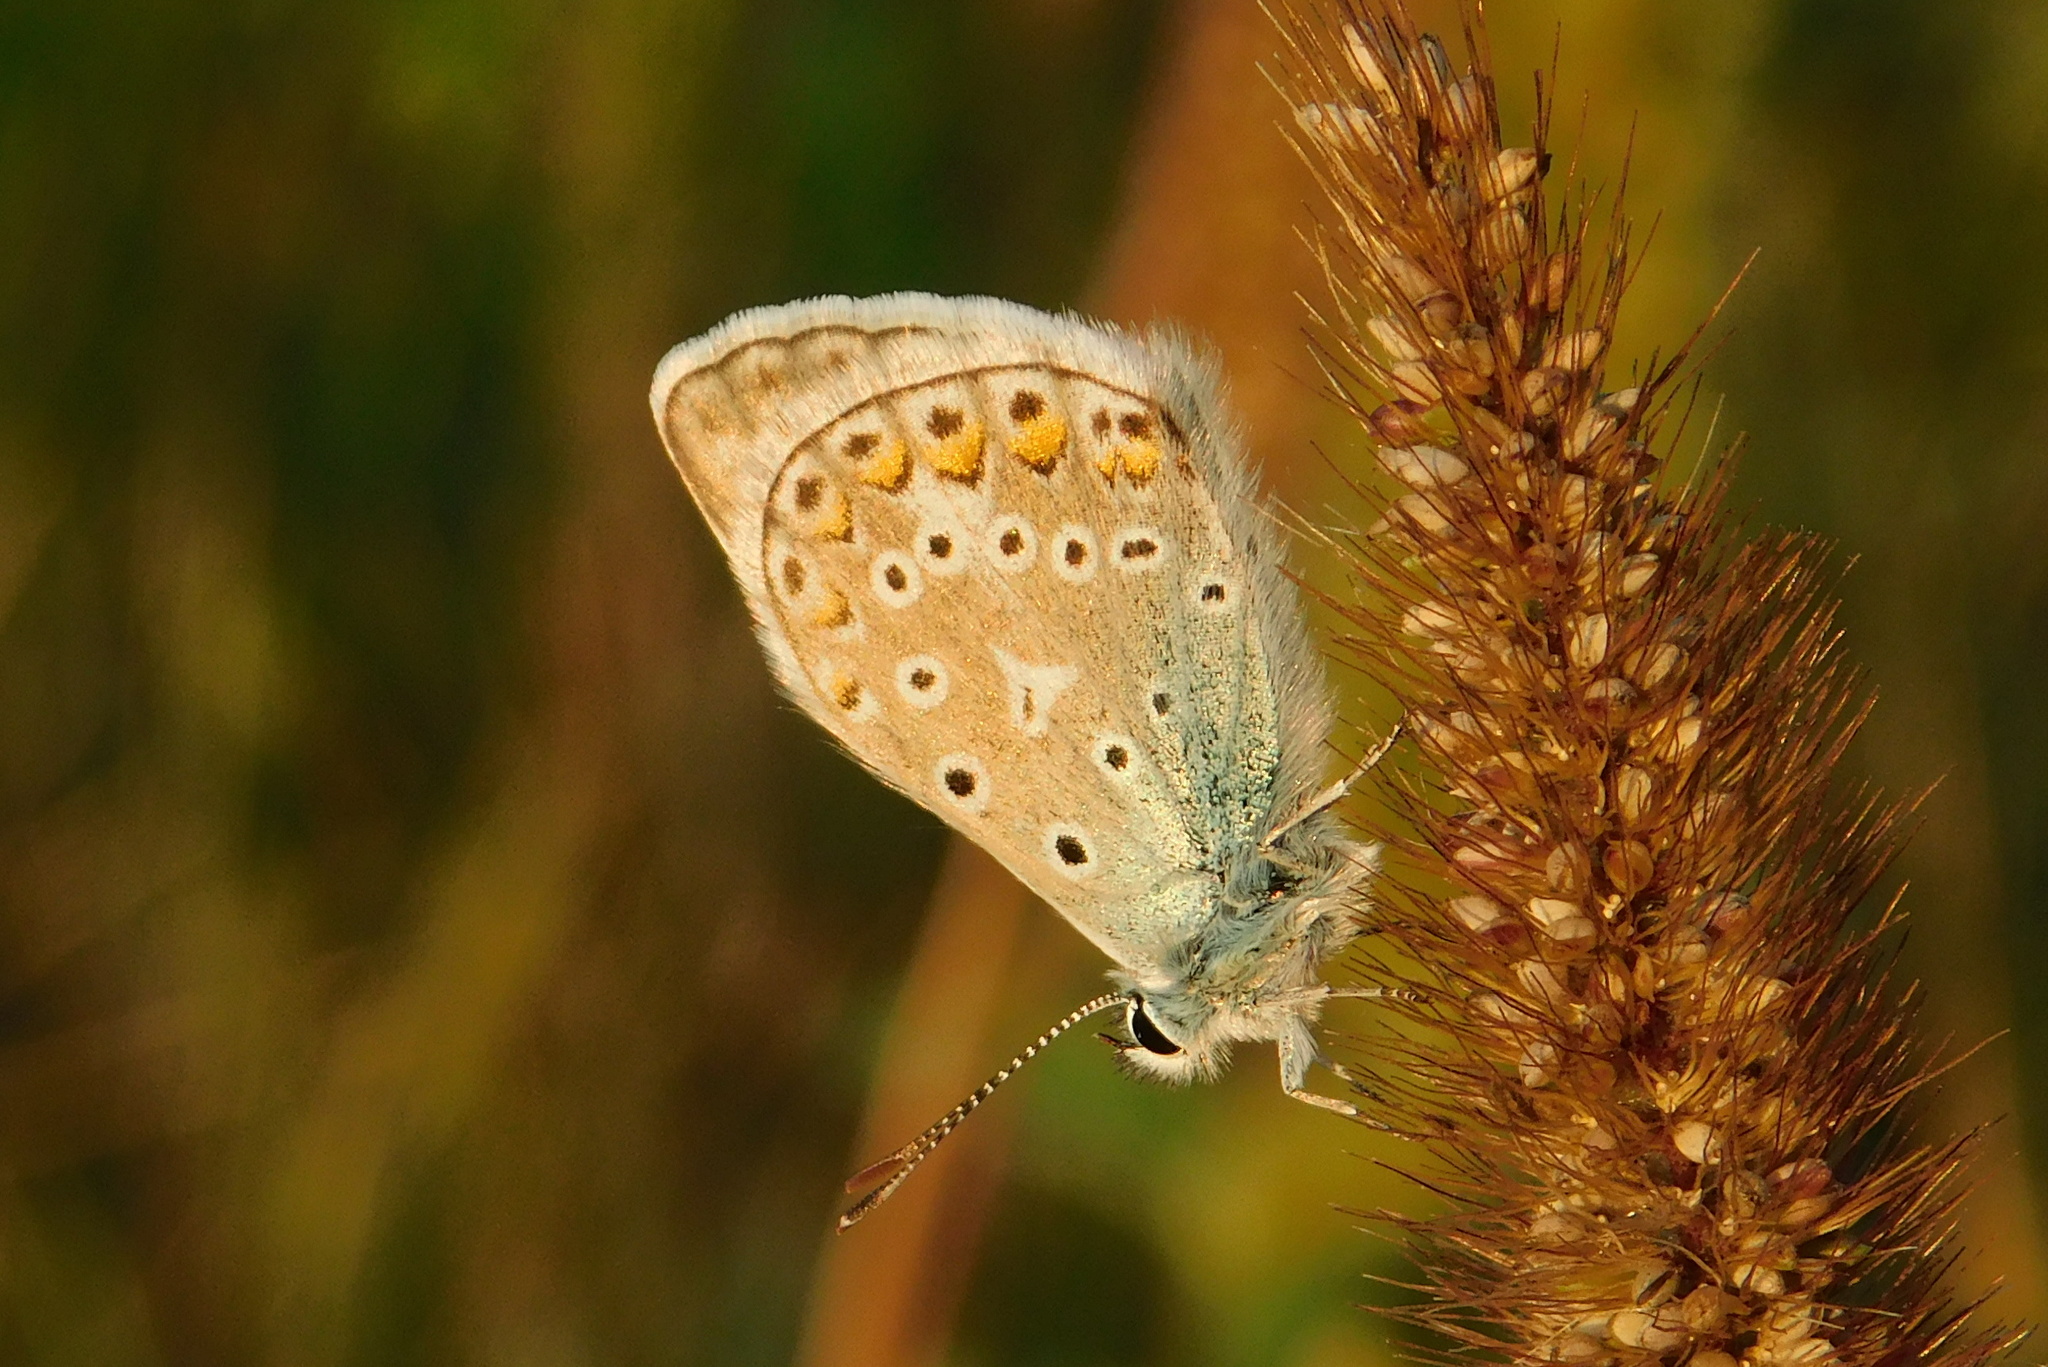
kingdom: Animalia
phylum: Arthropoda
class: Insecta
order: Lepidoptera
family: Lycaenidae
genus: Polyommatus
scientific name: Polyommatus icarus
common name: Common blue
